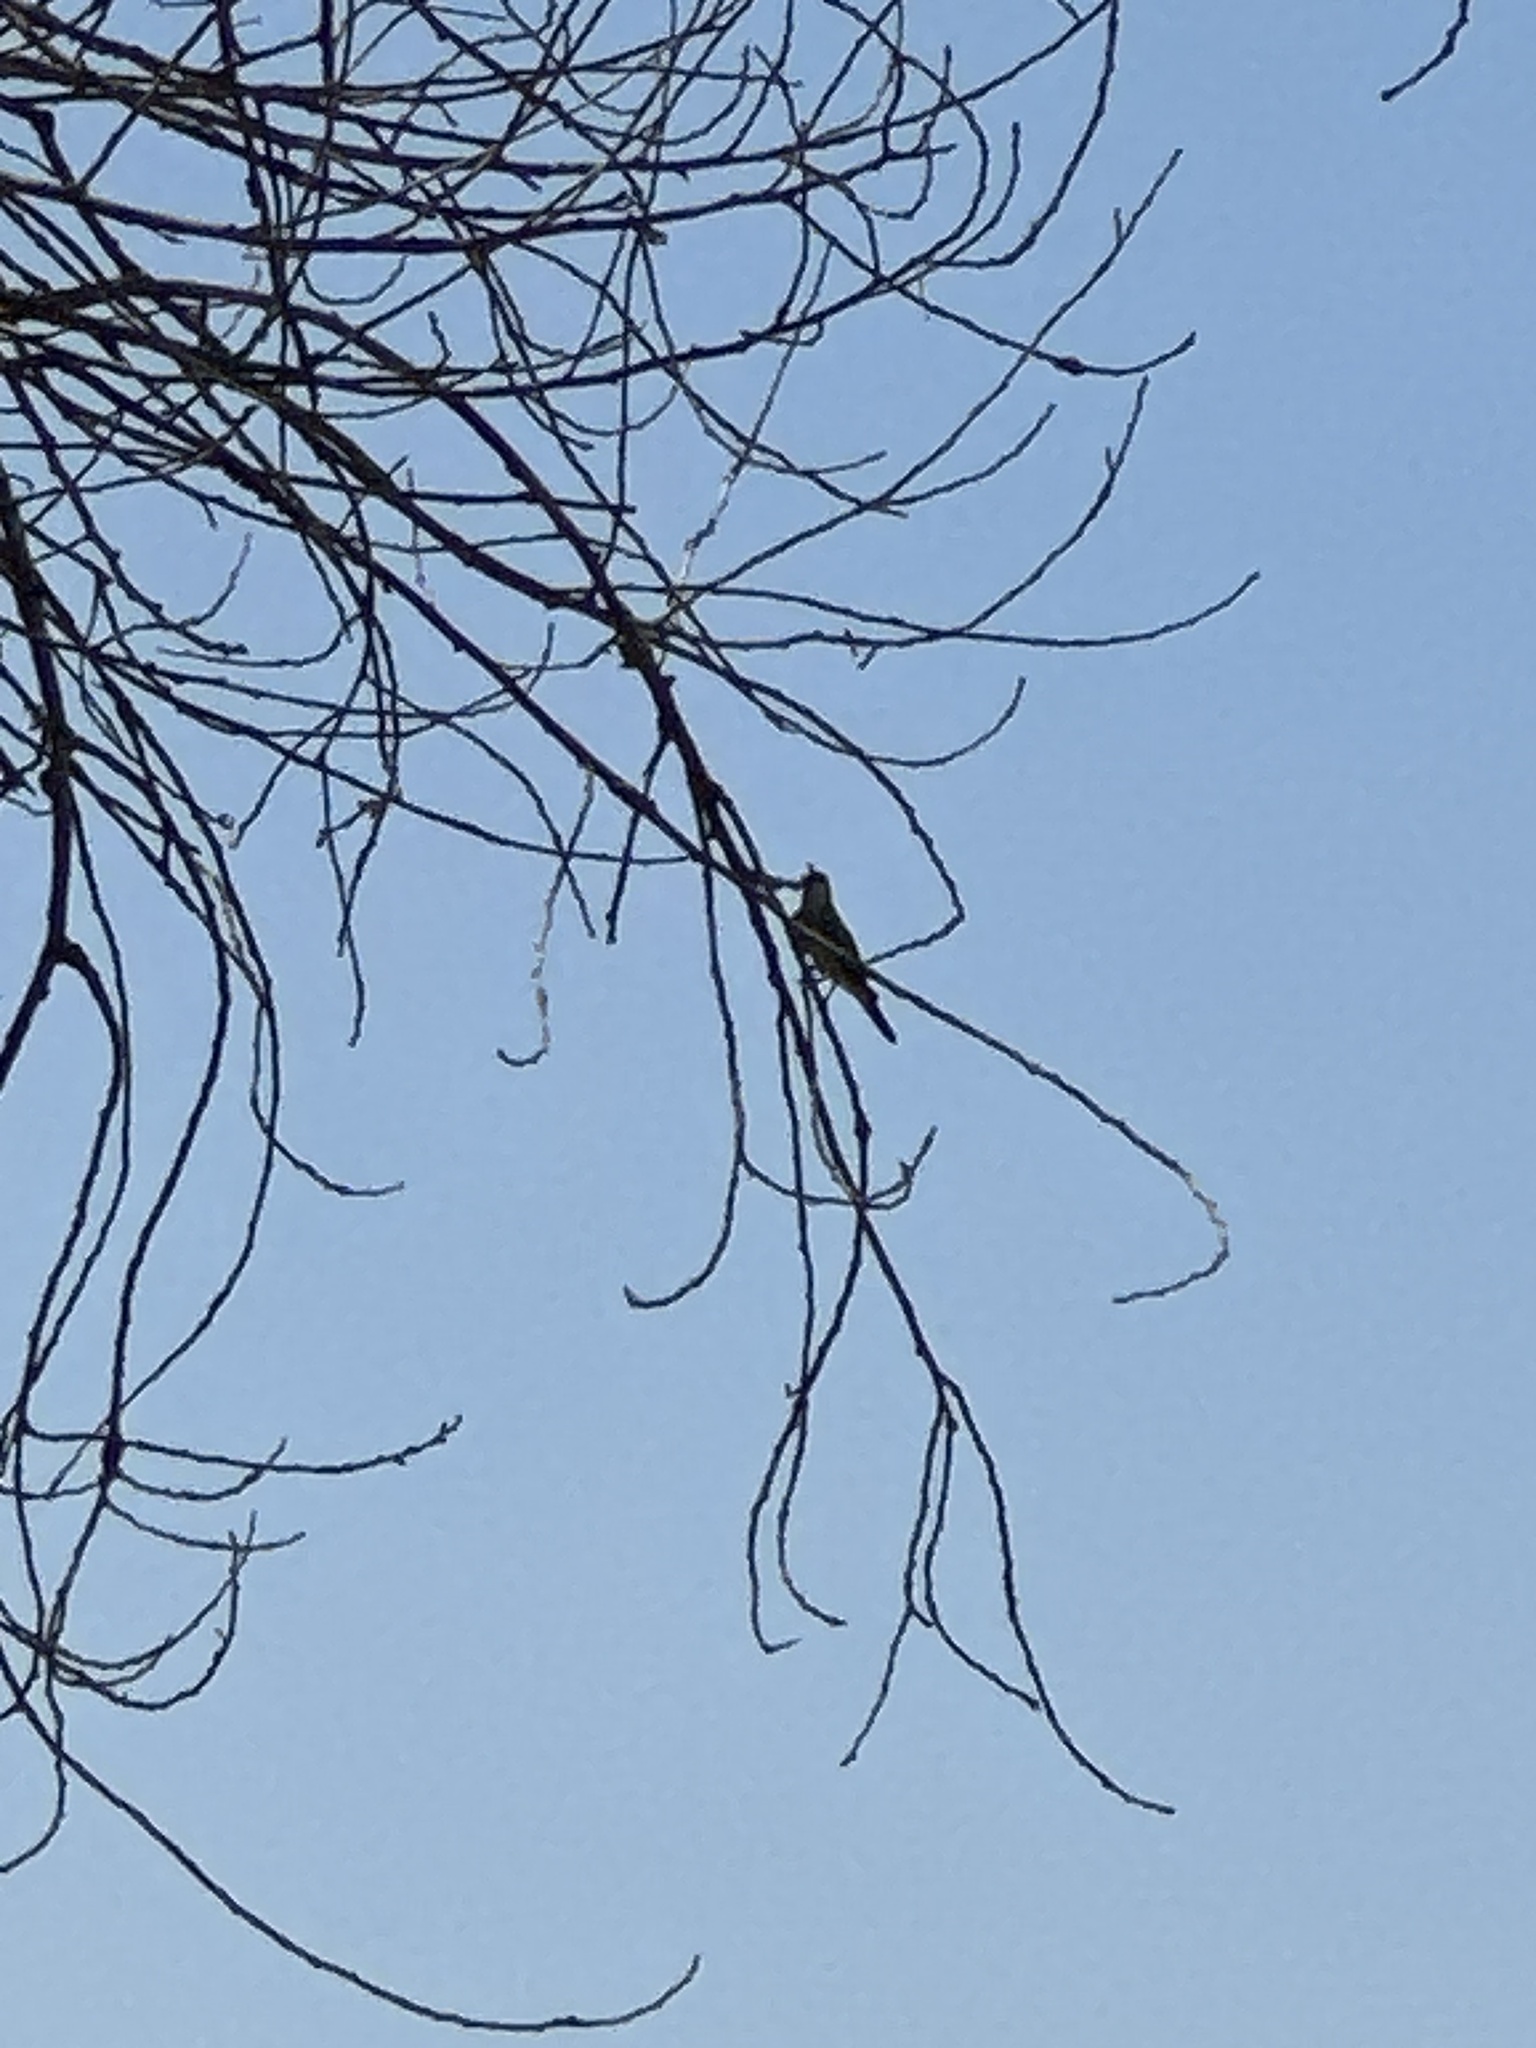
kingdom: Animalia
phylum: Chordata
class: Aves
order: Passeriformes
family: Tyrannidae
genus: Tyrannus
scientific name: Tyrannus verticalis
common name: Western kingbird
